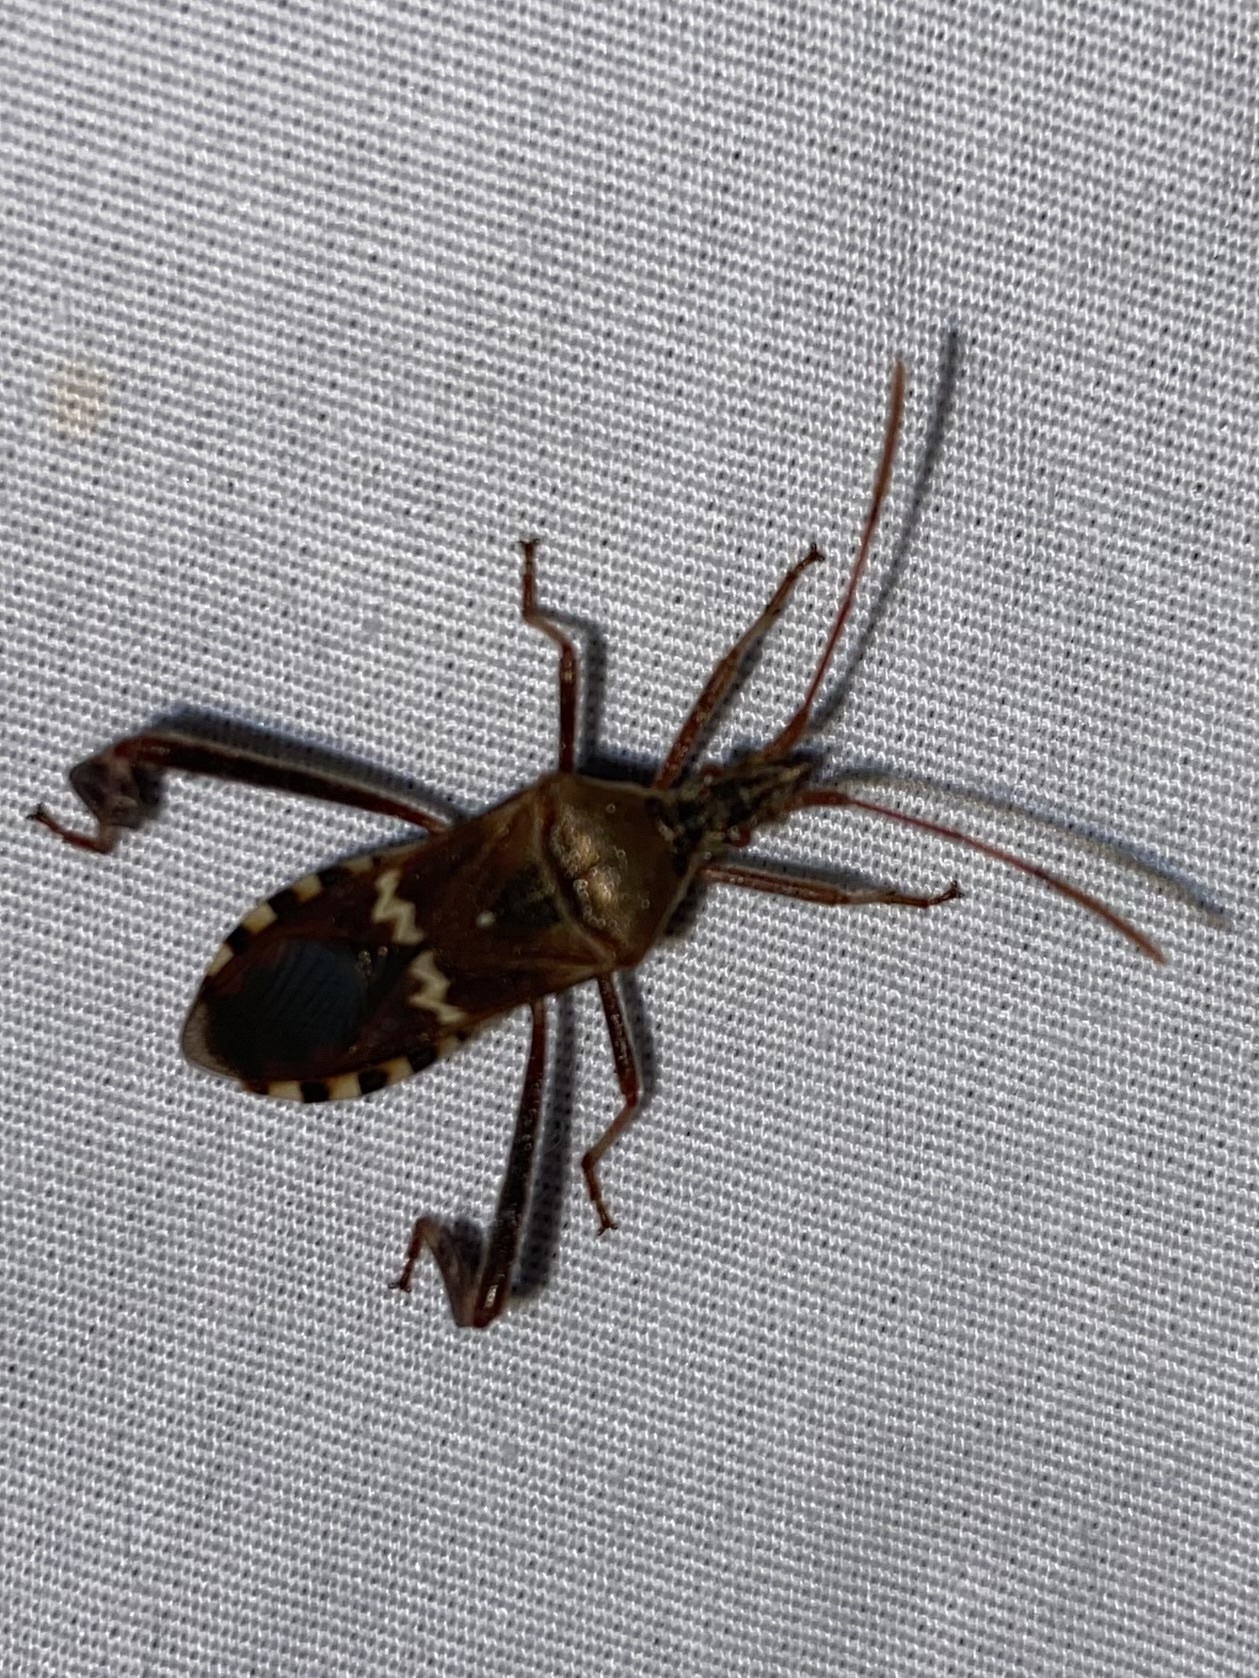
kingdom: Animalia
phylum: Arthropoda
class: Insecta
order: Hemiptera
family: Coreidae
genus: Leptoglossus
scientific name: Leptoglossus clypealis
